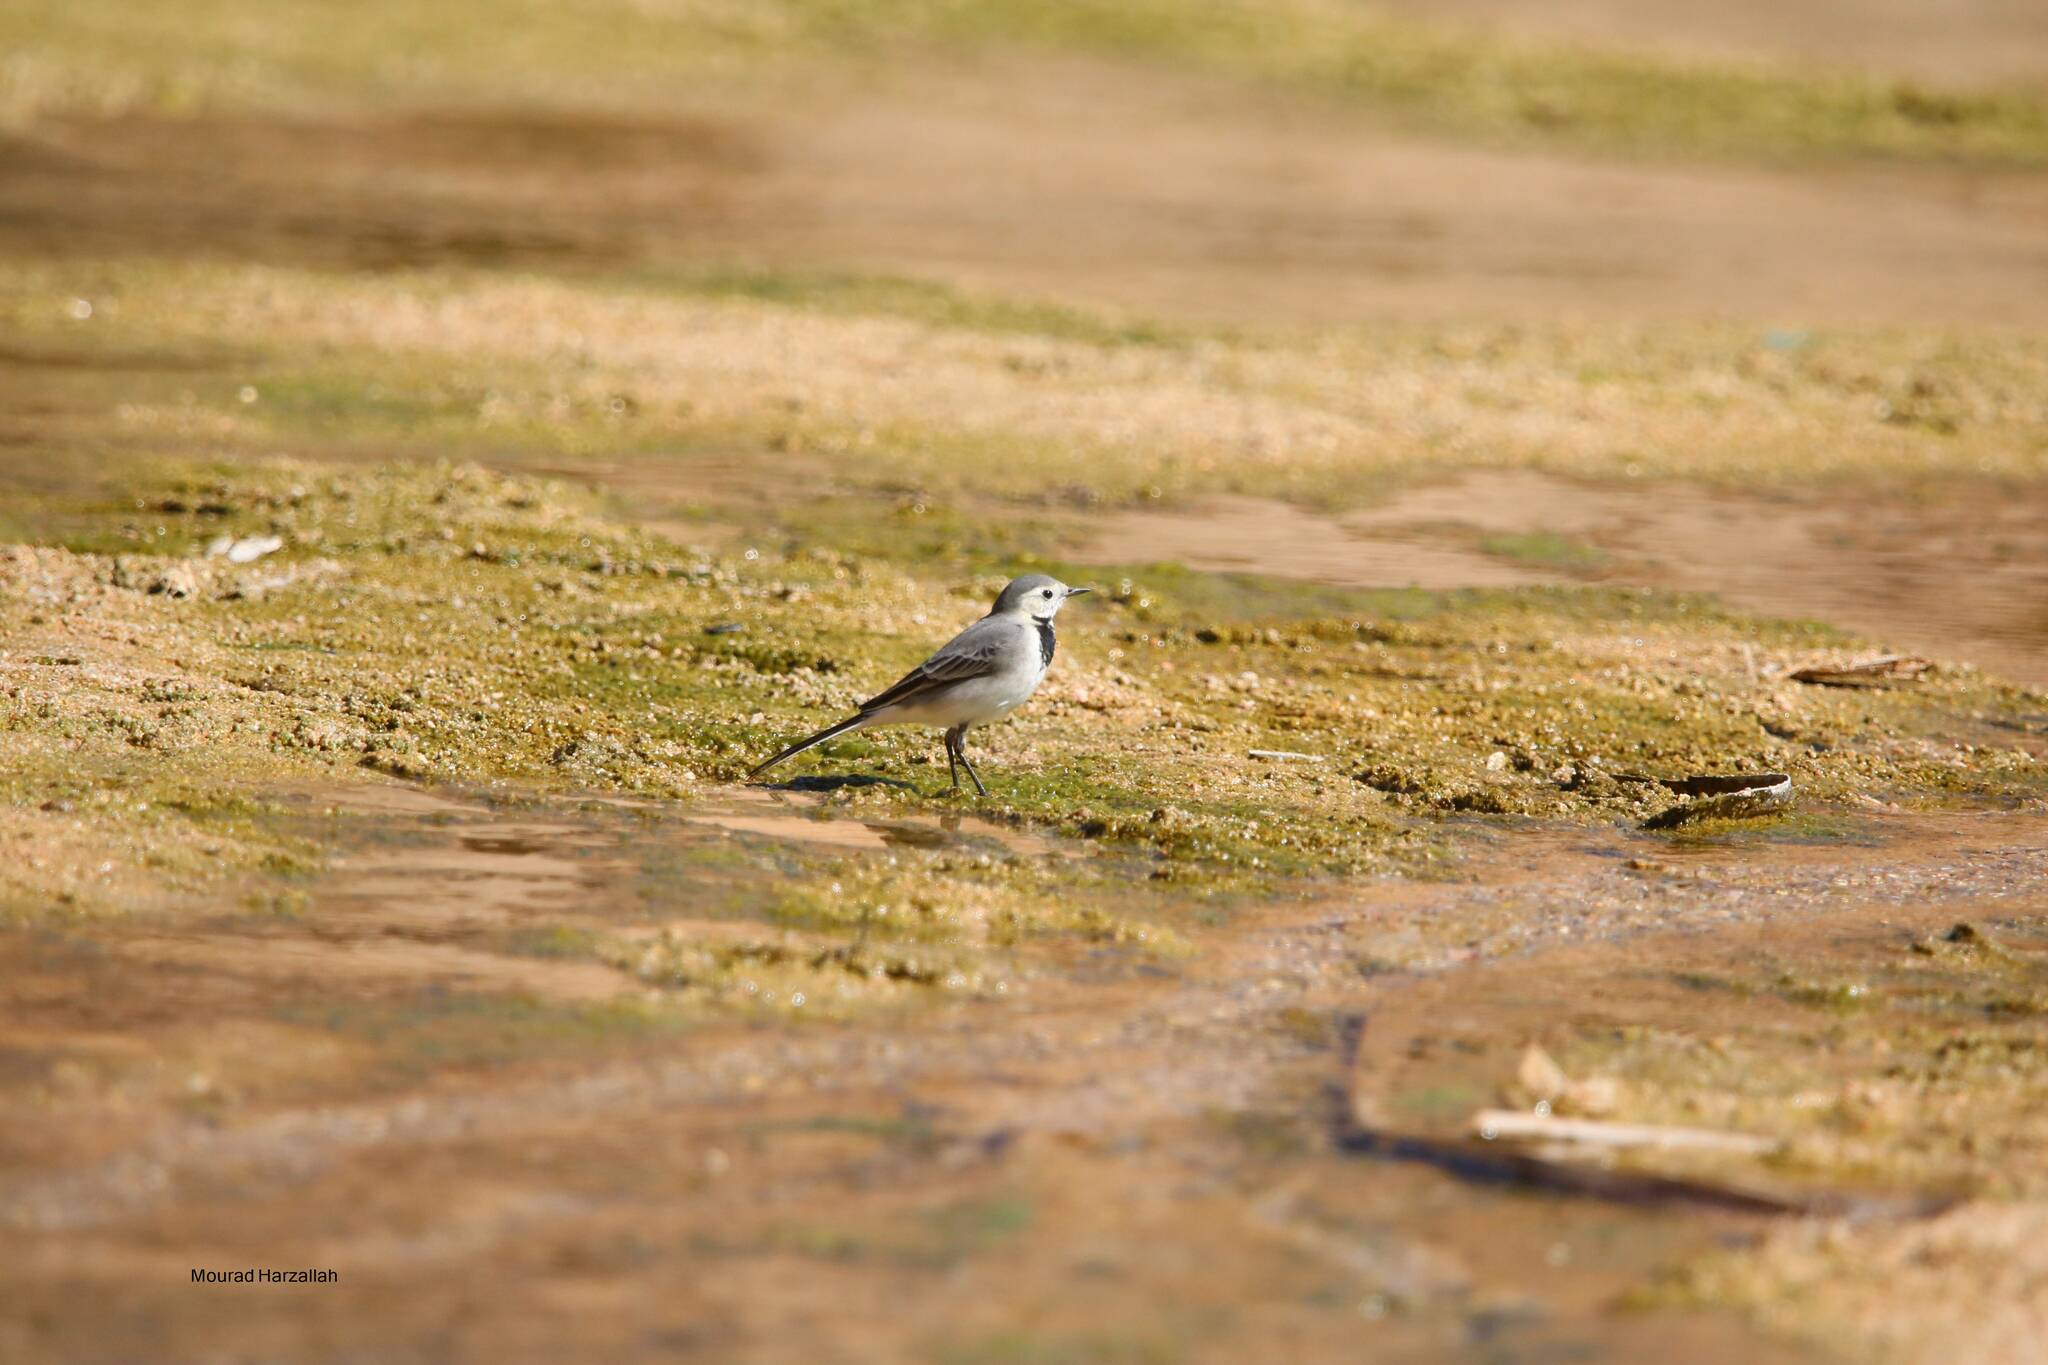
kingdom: Animalia
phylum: Chordata
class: Aves
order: Passeriformes
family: Motacillidae
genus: Motacilla
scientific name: Motacilla alba
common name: White wagtail
